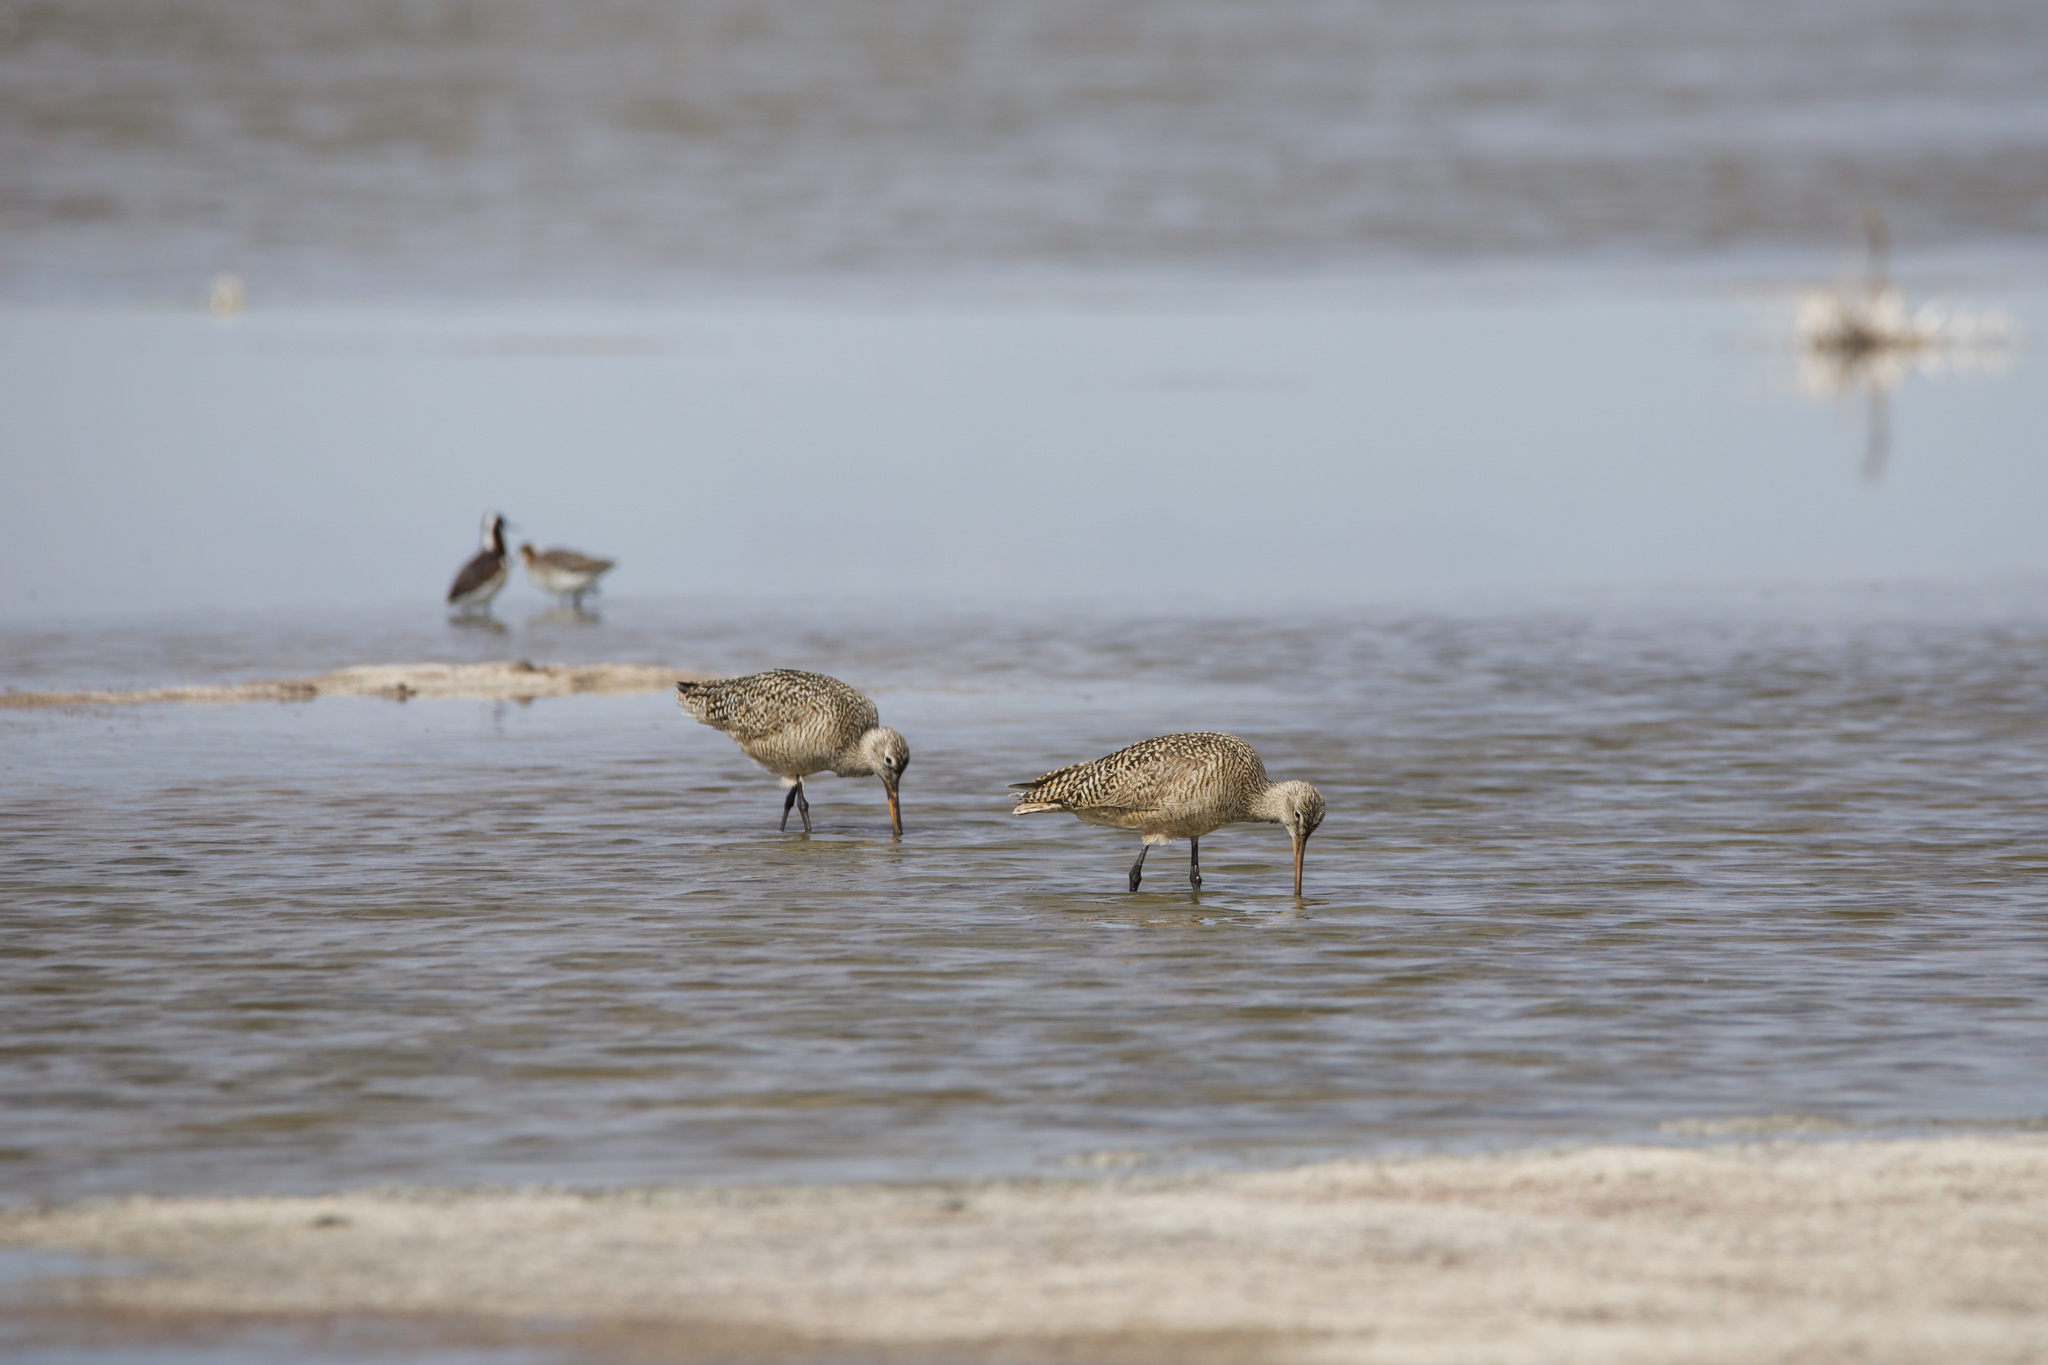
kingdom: Animalia
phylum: Chordata
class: Aves
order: Charadriiformes
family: Scolopacidae
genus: Limosa
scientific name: Limosa fedoa
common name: Marbled godwit
